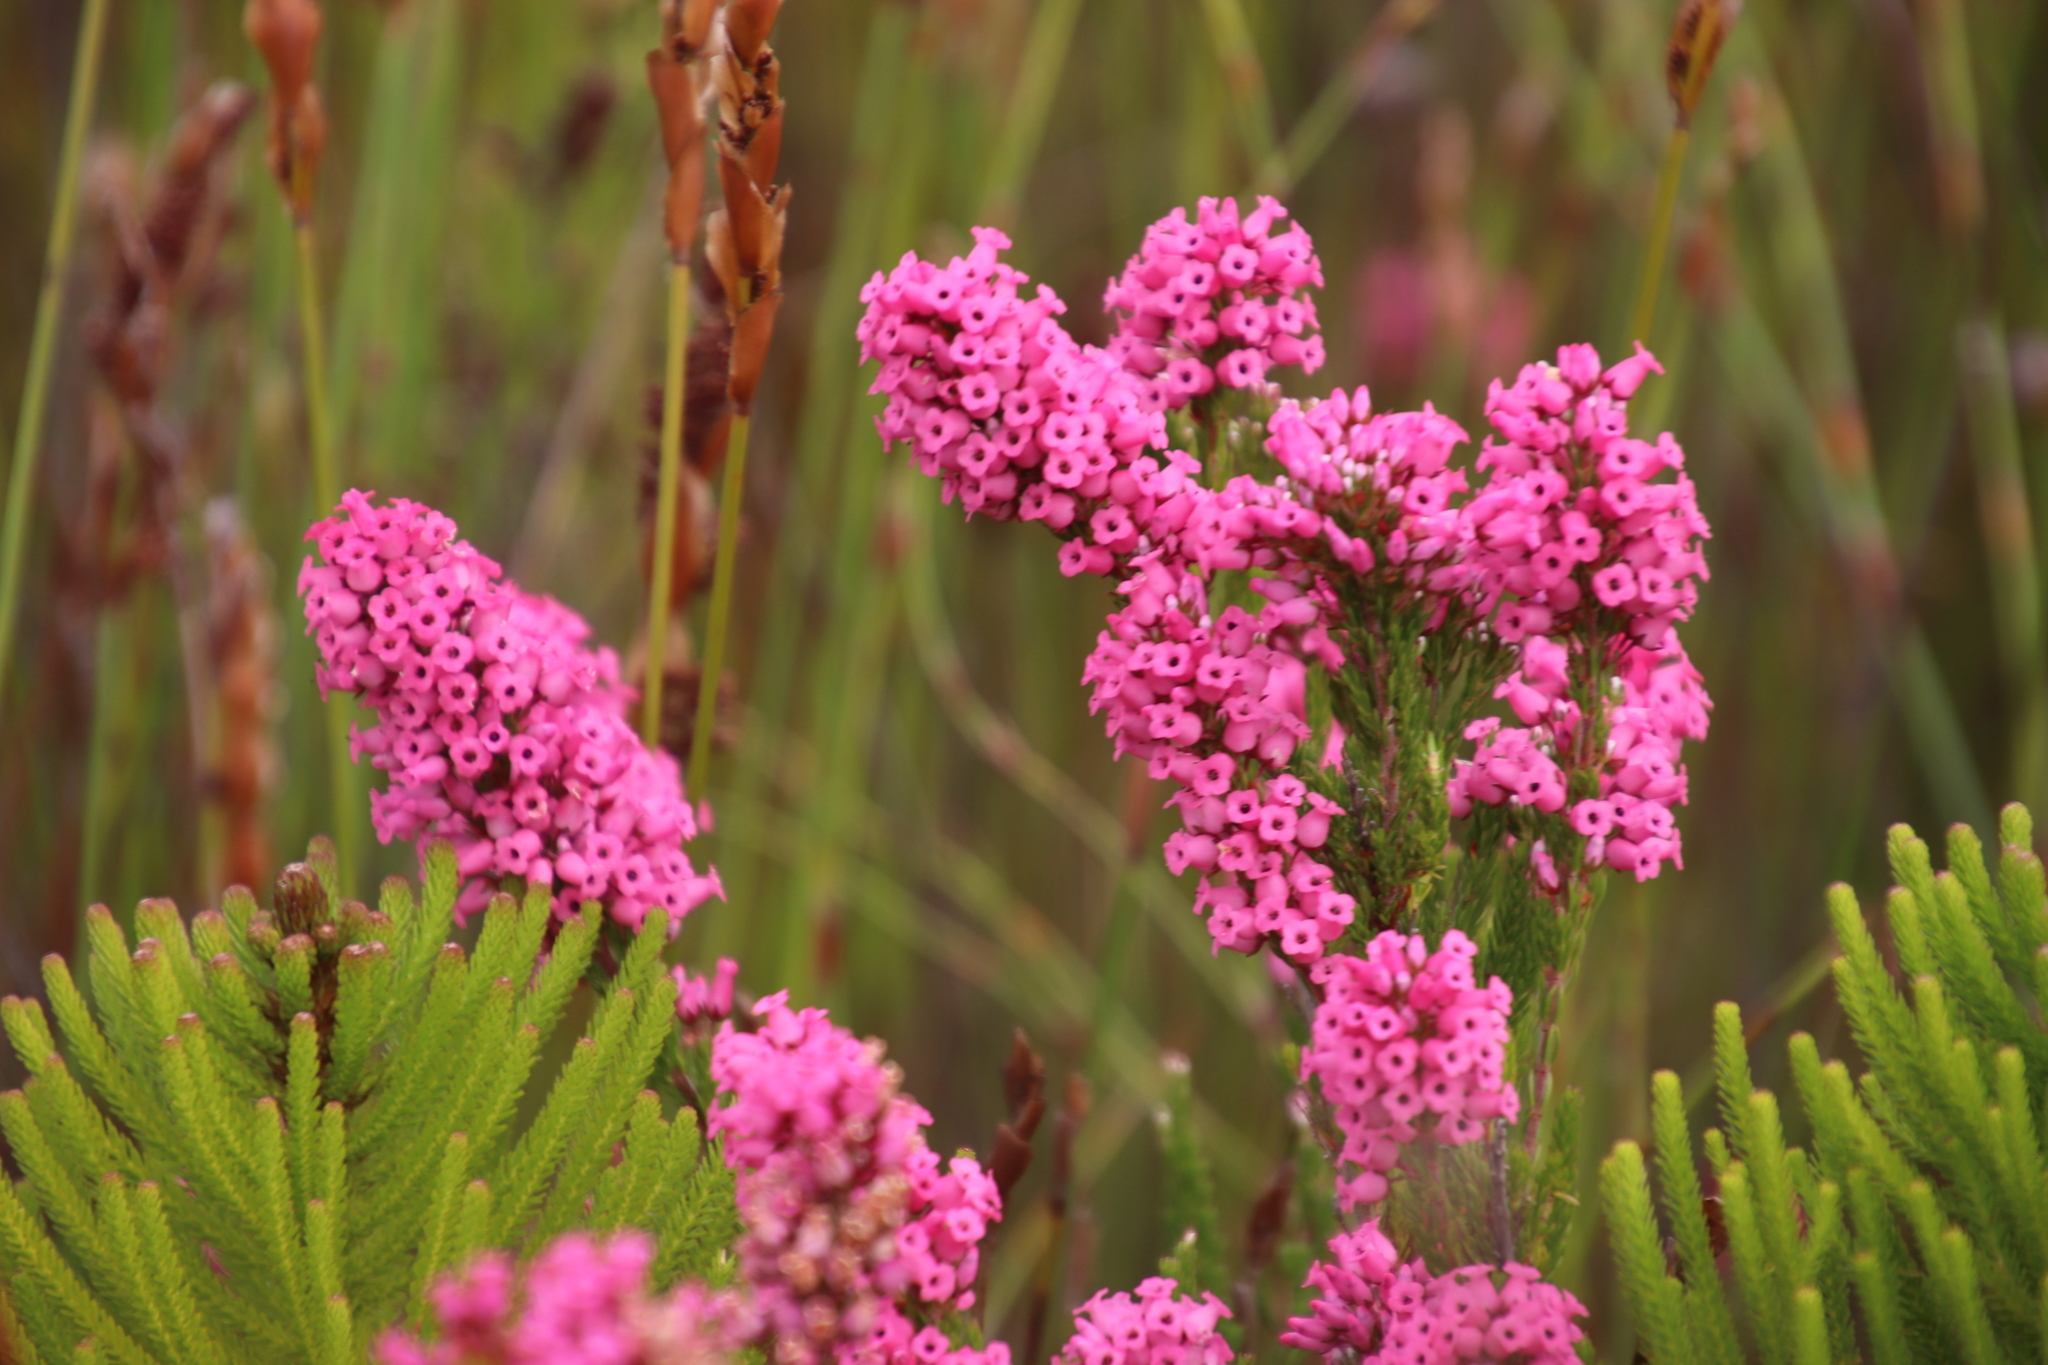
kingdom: Plantae
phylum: Tracheophyta
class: Magnoliopsida
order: Ericales
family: Ericaceae
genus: Erica
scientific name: Erica tenella
